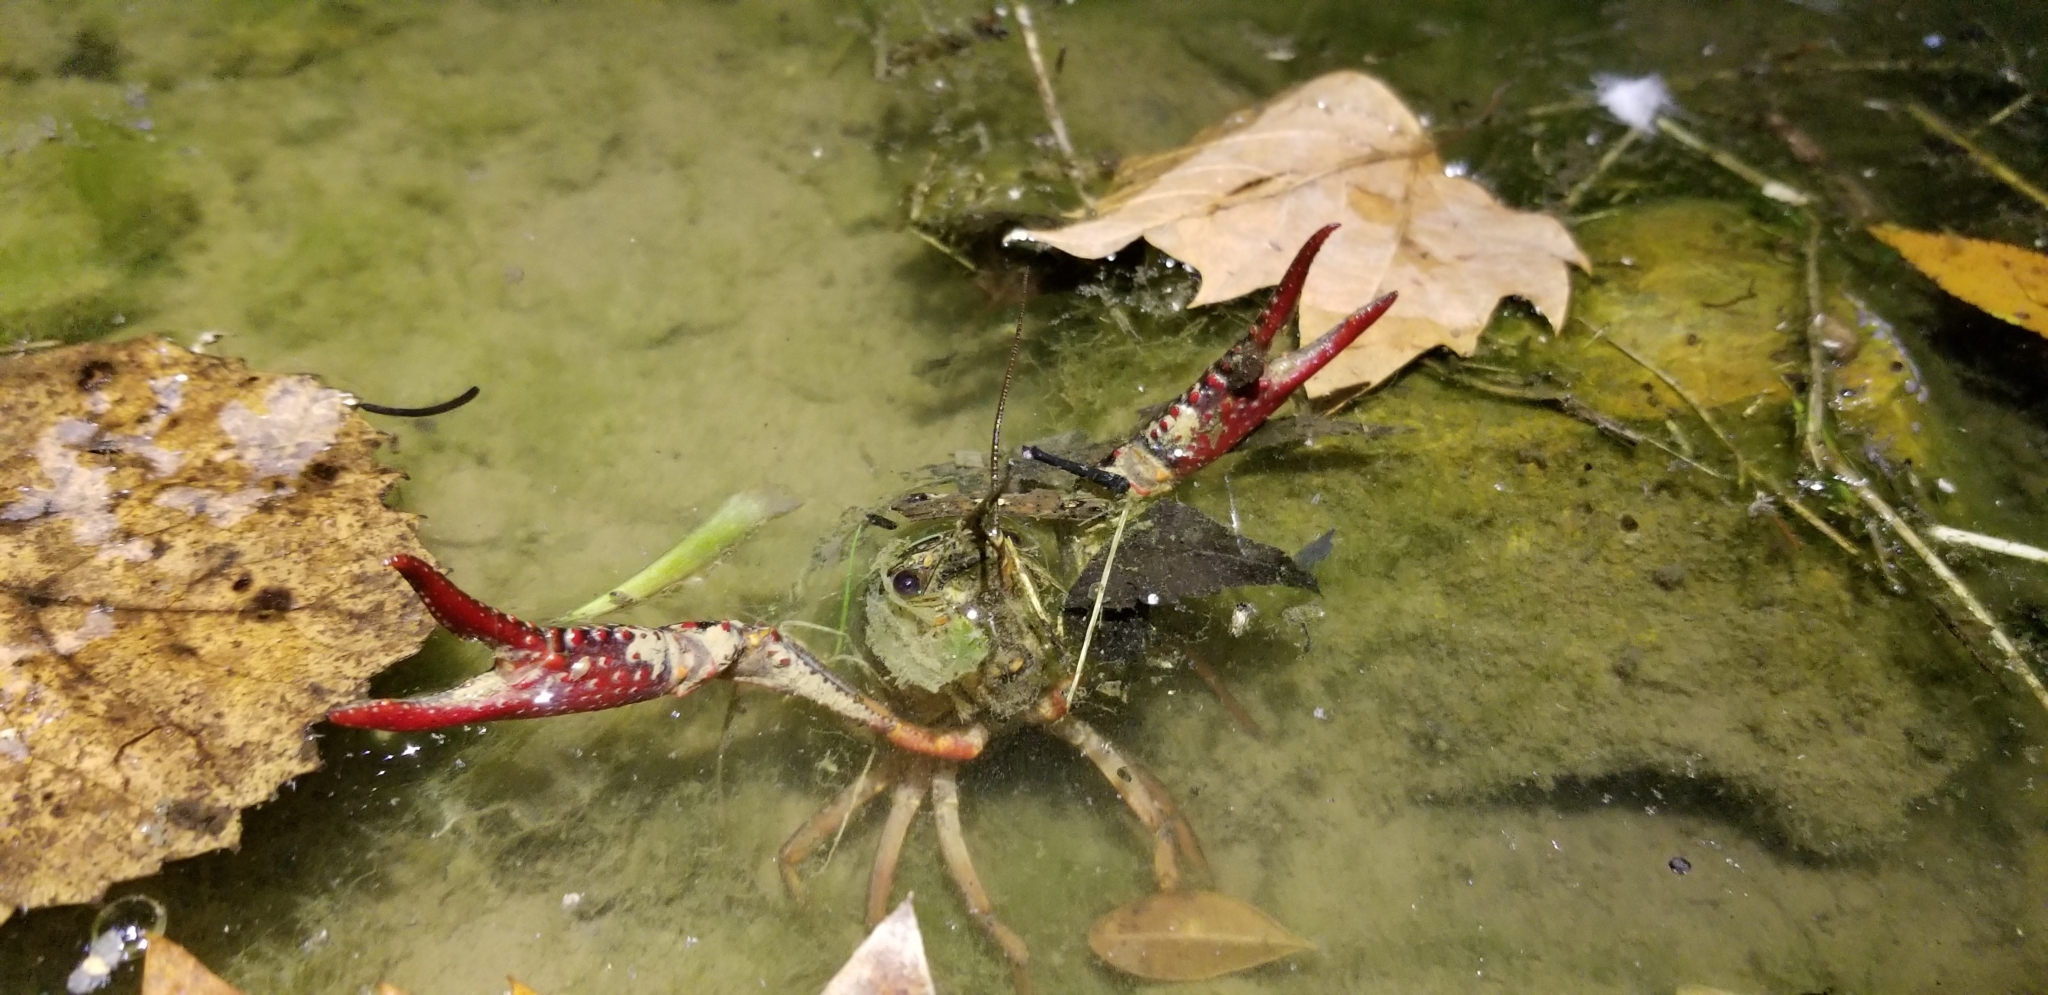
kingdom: Animalia
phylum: Arthropoda
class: Malacostraca
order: Decapoda
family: Cambaridae
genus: Procambarus
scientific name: Procambarus clarkii
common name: Red swamp crayfish
